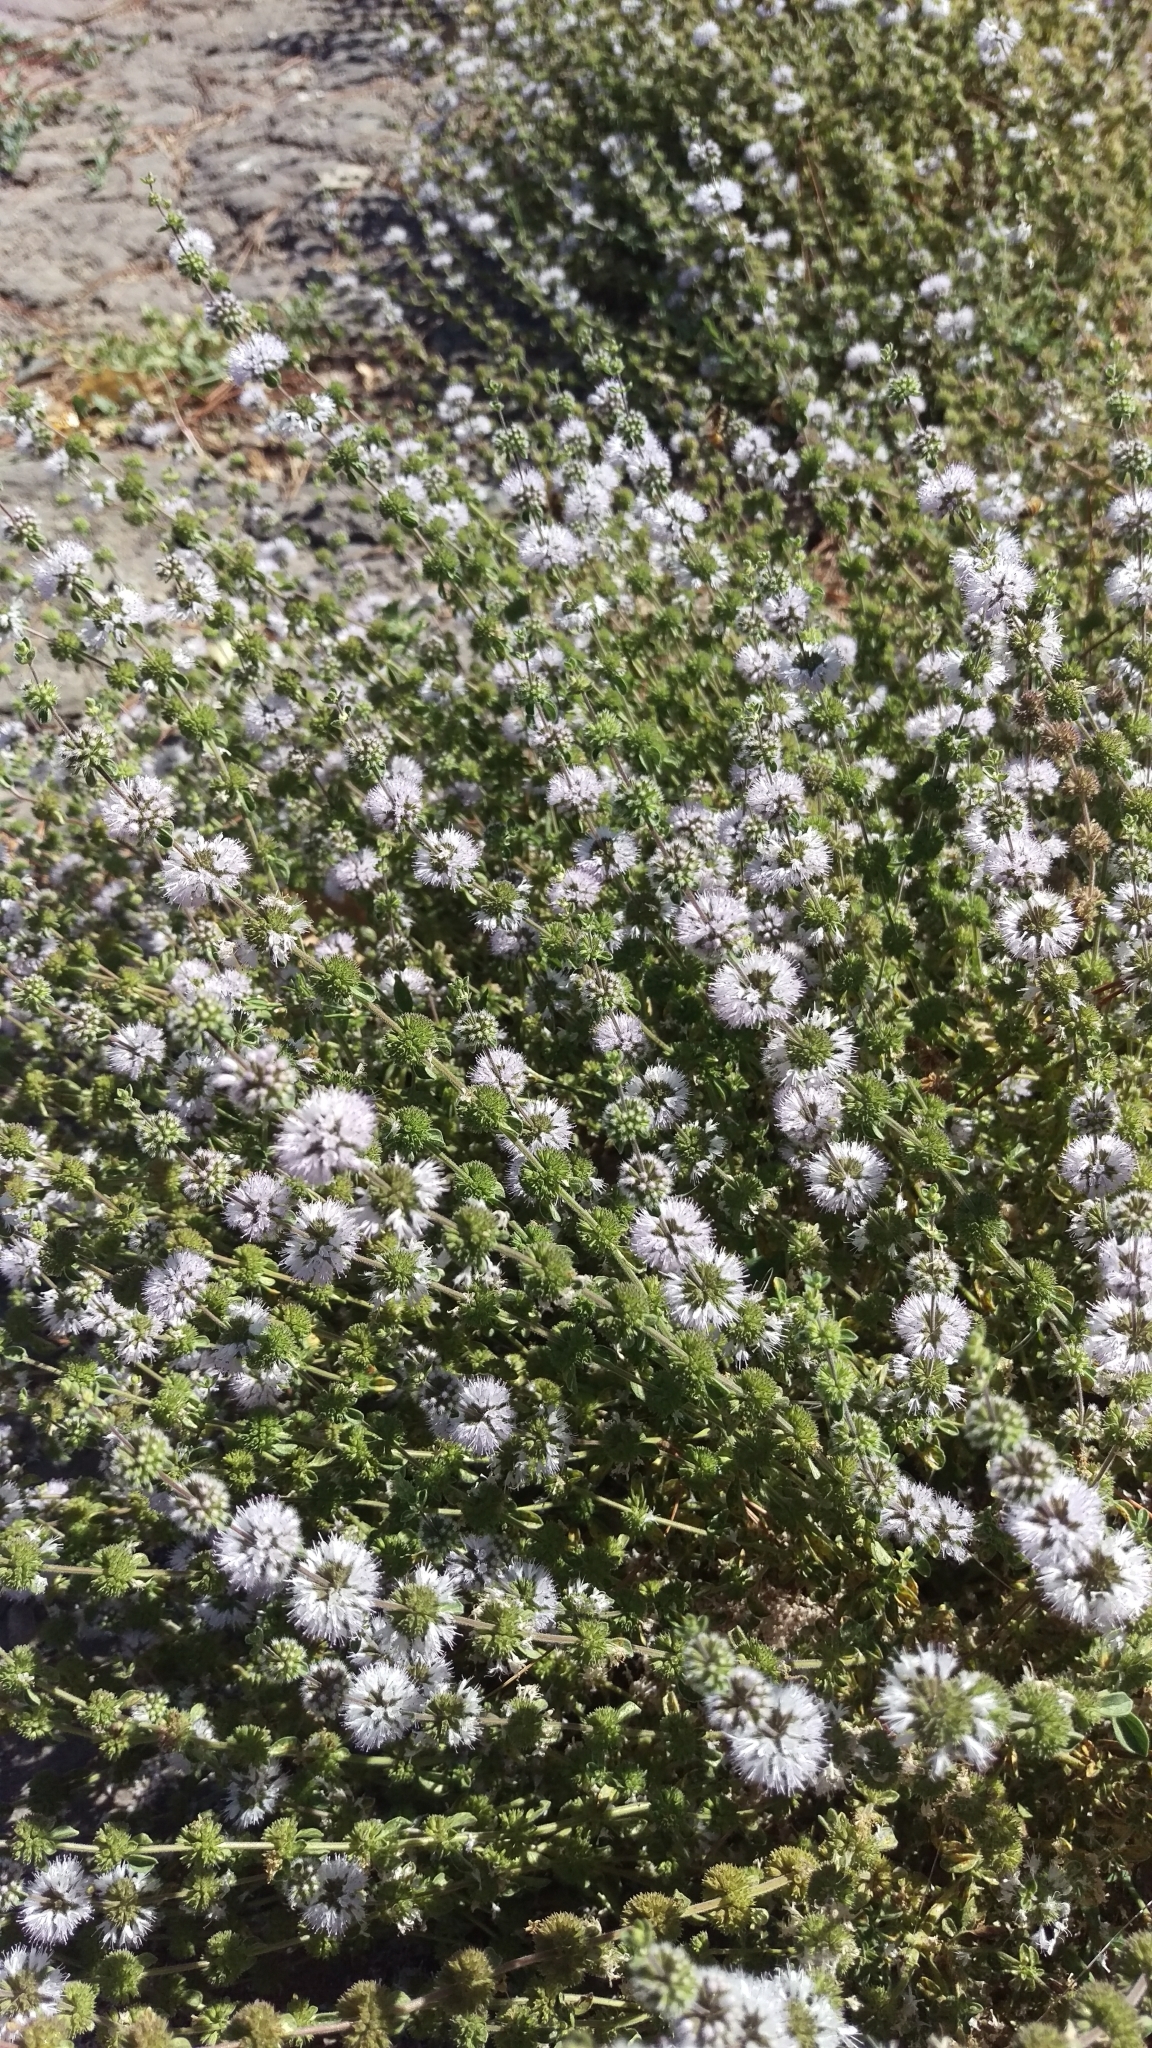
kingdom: Plantae
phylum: Tracheophyta
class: Magnoliopsida
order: Lamiales
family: Lamiaceae
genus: Mentha
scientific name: Mentha pulegium
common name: Pennyroyal
